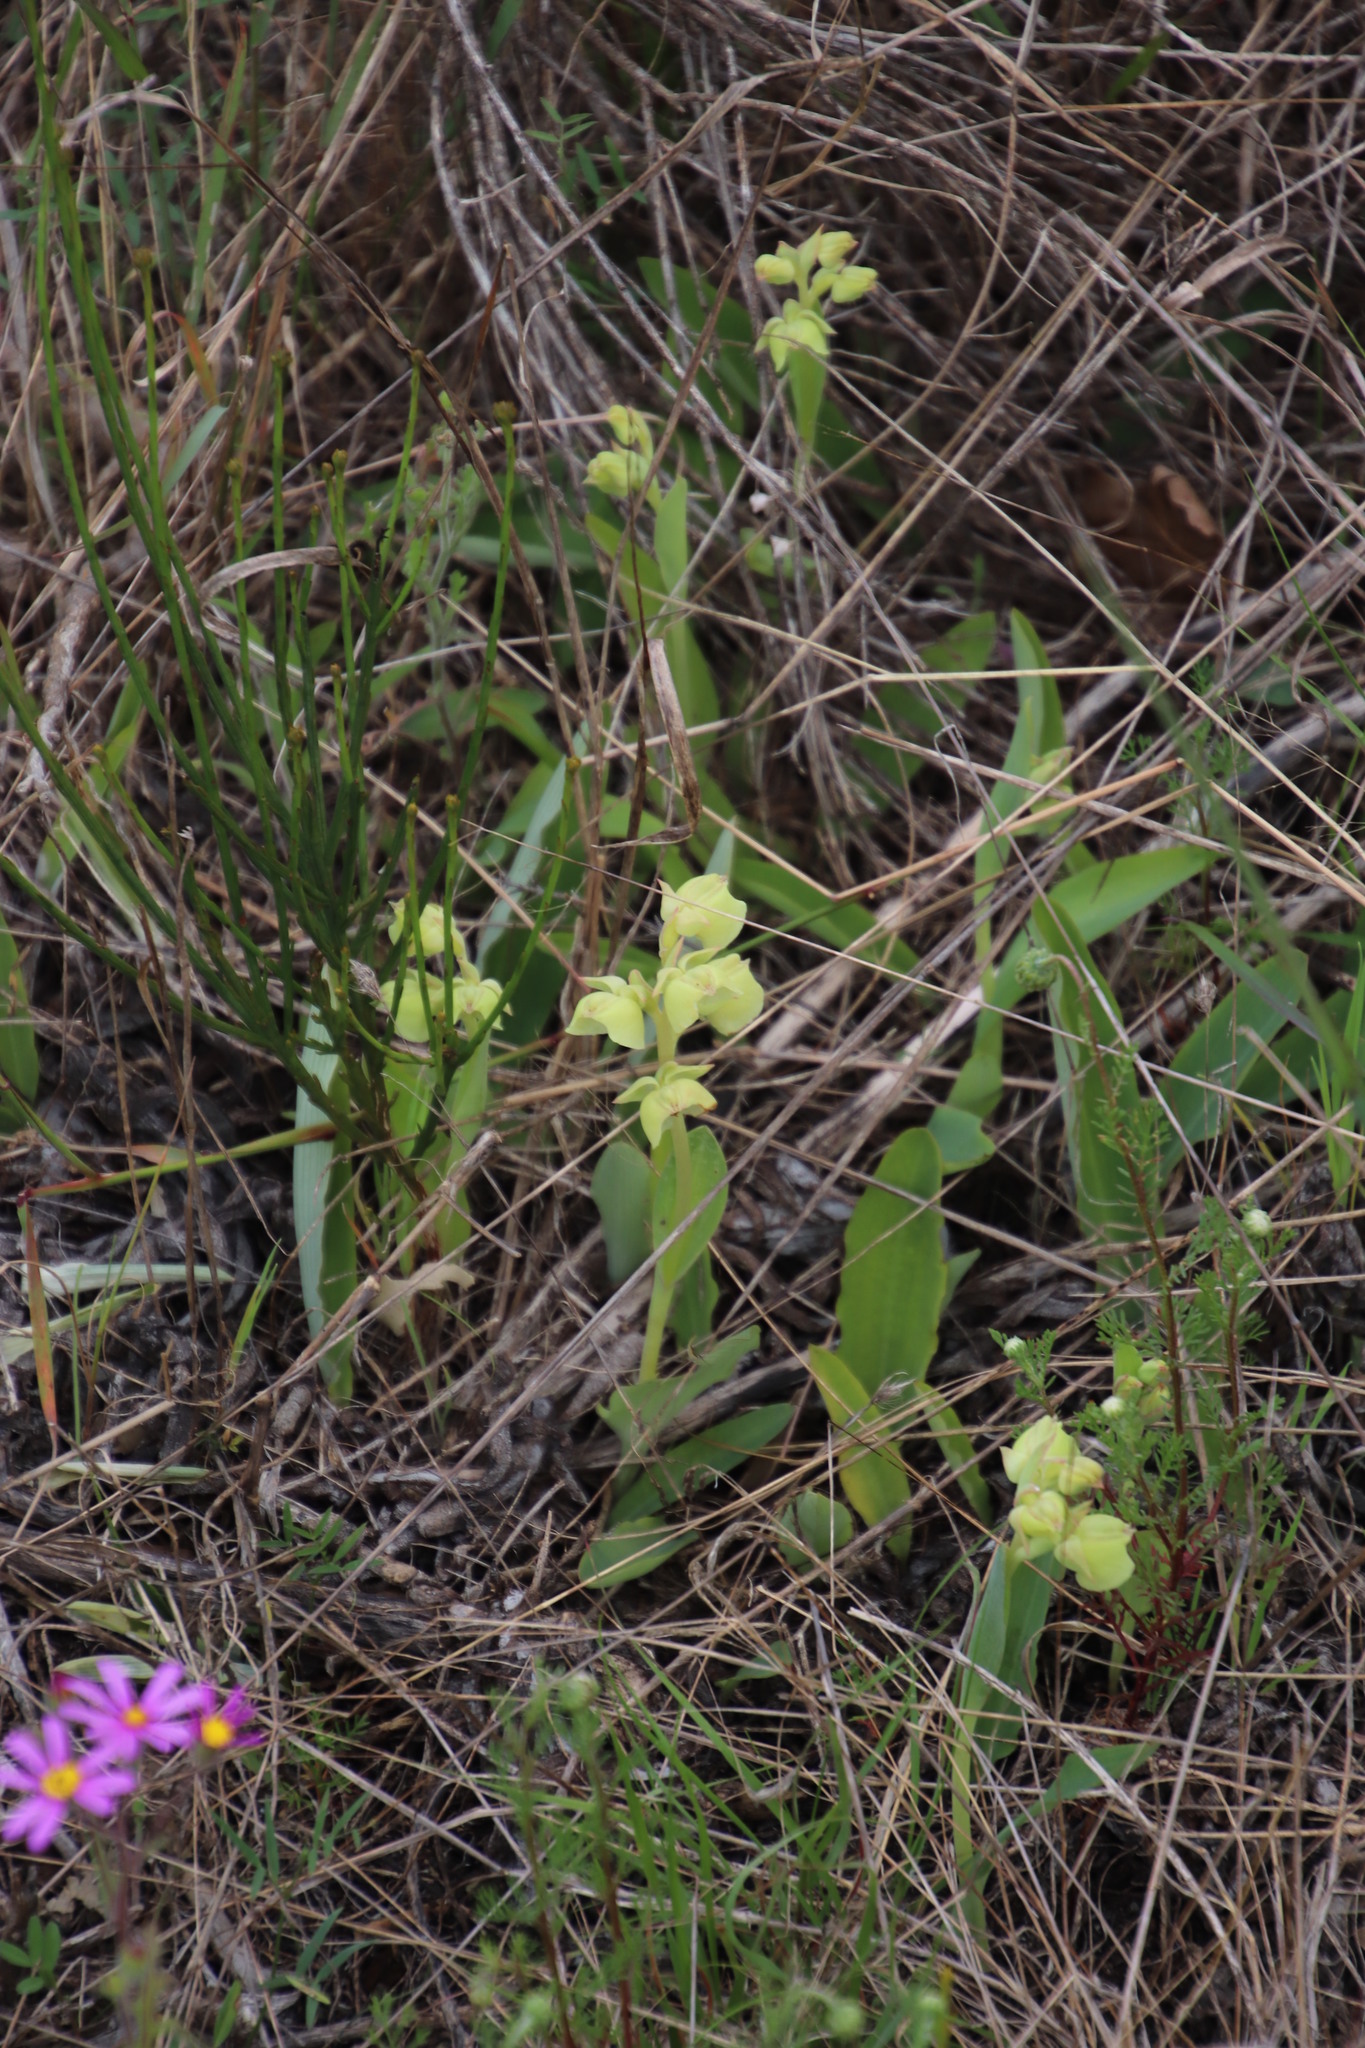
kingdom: Plantae
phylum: Tracheophyta
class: Liliopsida
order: Asparagales
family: Orchidaceae
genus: Pterygodium
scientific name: Pterygodium catholicum
